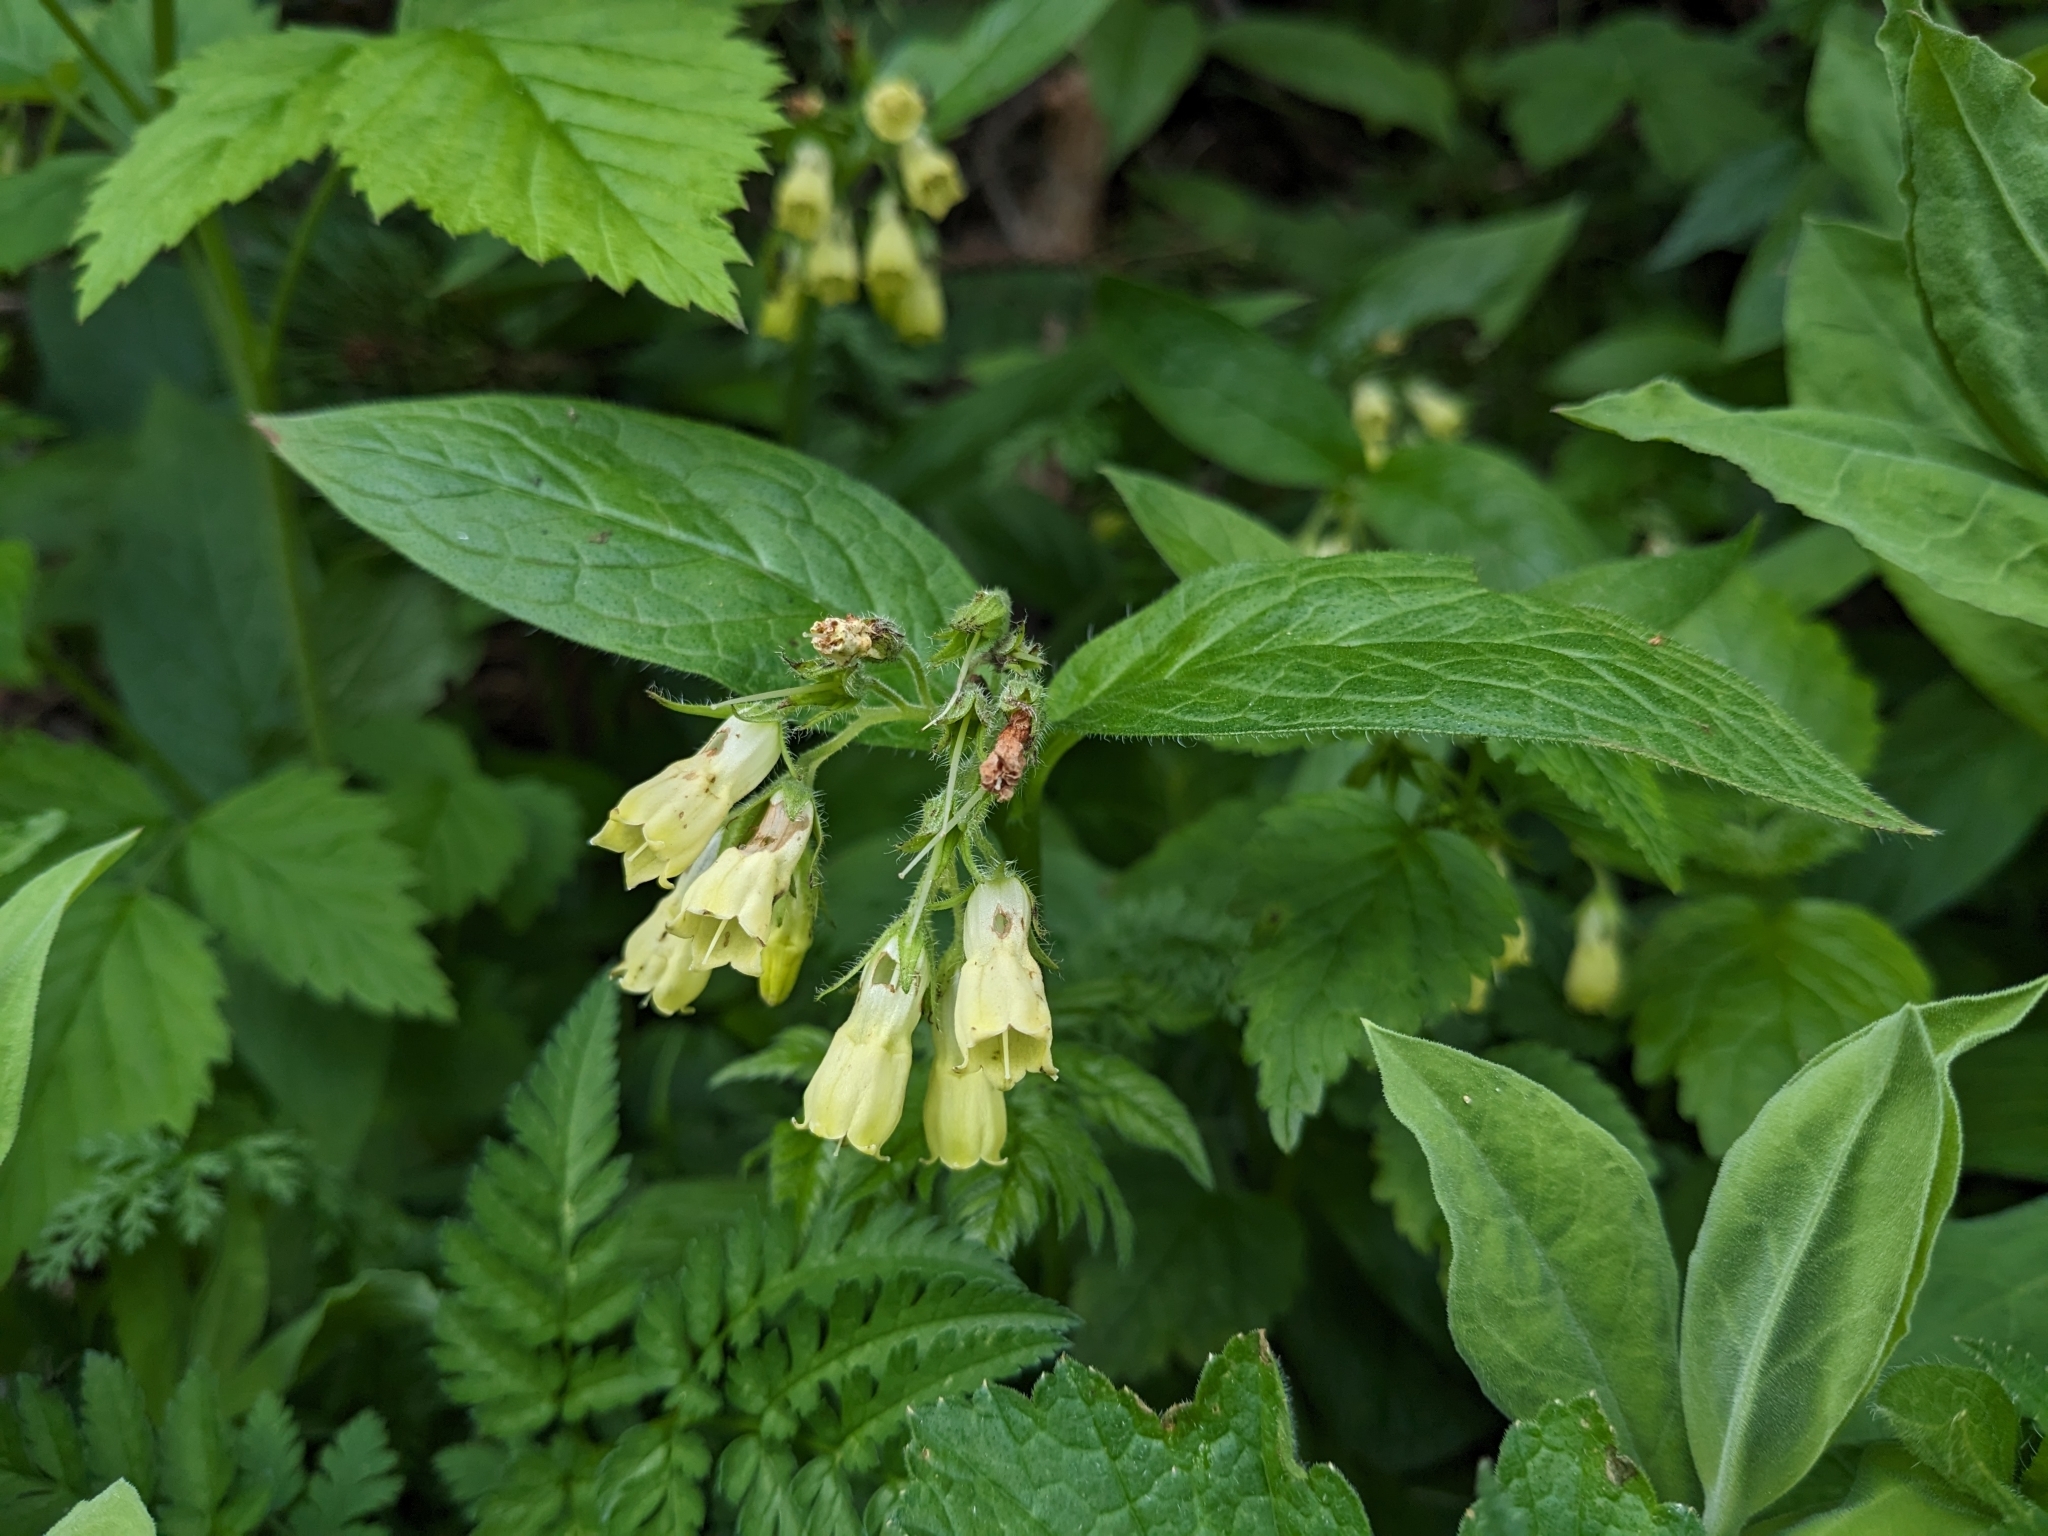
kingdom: Plantae
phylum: Tracheophyta
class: Magnoliopsida
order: Boraginales
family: Boraginaceae
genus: Symphytum
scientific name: Symphytum tuberosum
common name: Tuberous comfrey
